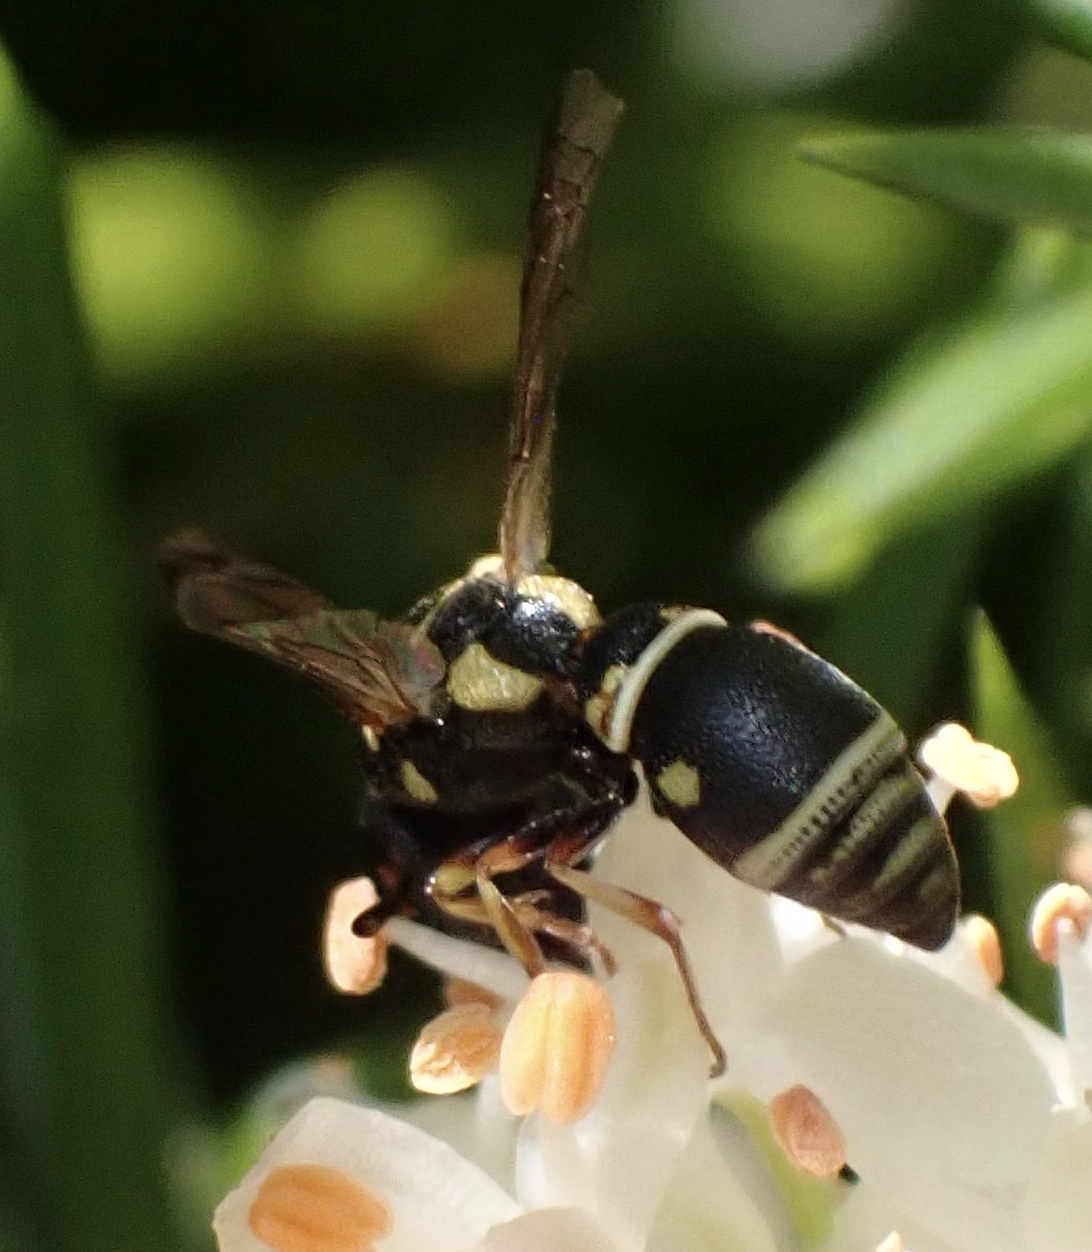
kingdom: Animalia
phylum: Arthropoda
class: Insecta
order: Hymenoptera
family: Eumenidae
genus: Leptochilus
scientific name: Leptochilus regulus
